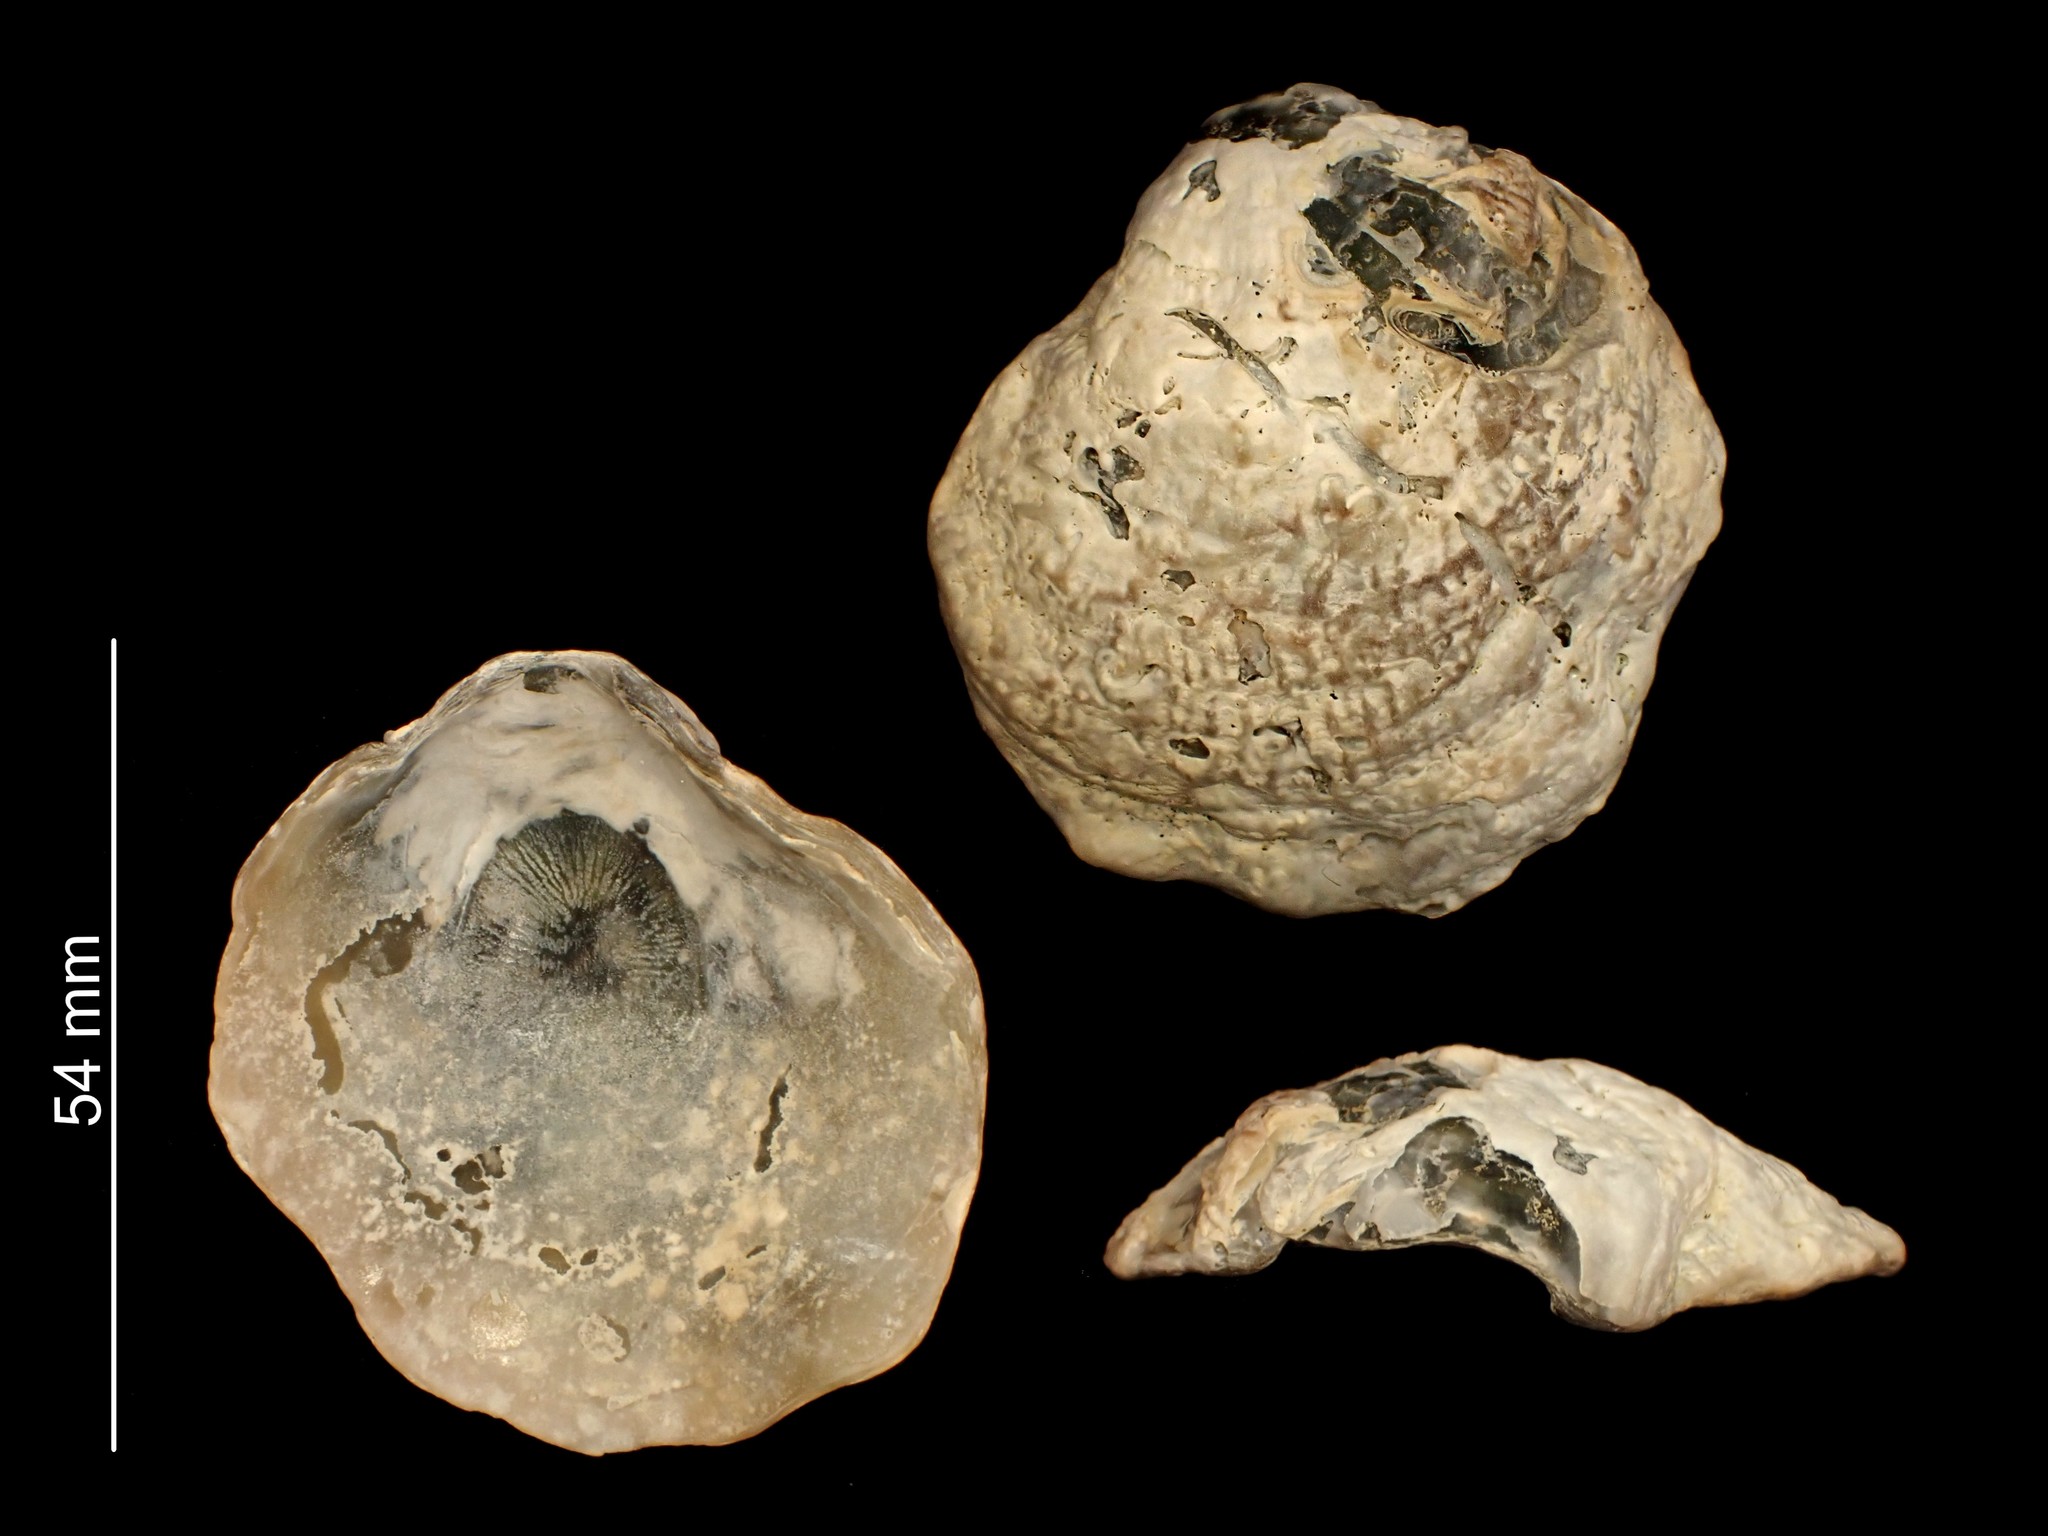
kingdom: Animalia
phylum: Mollusca
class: Bivalvia
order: Pectinida
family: Anomiidae
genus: Monia
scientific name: Monia zelandica
